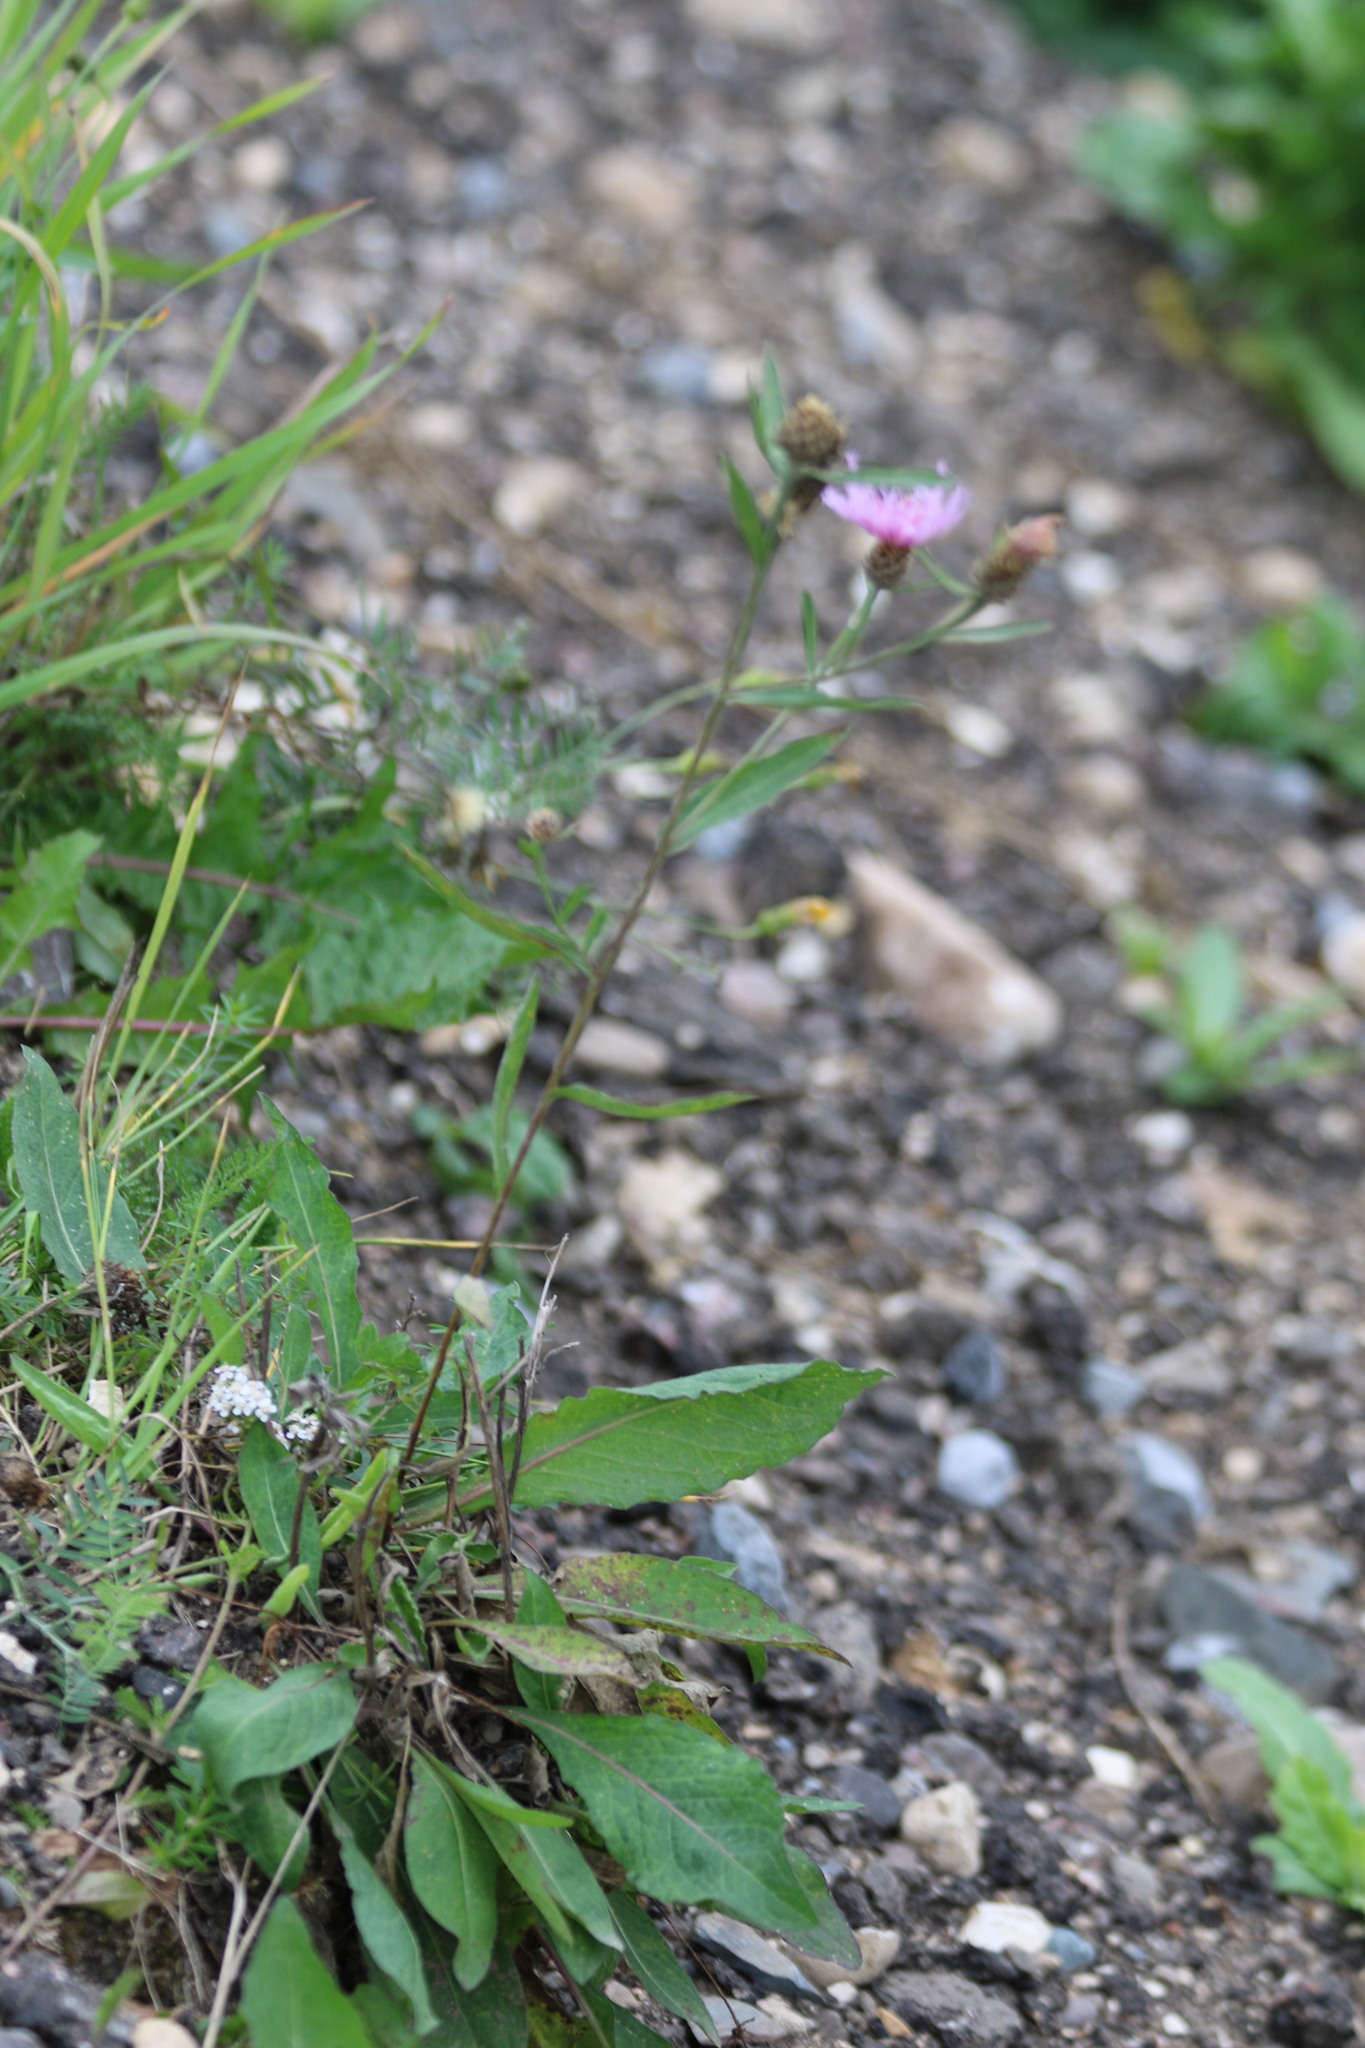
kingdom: Plantae
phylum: Tracheophyta
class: Magnoliopsida
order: Asterales
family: Asteraceae
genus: Centaurea
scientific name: Centaurea jacea
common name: Brown knapweed
